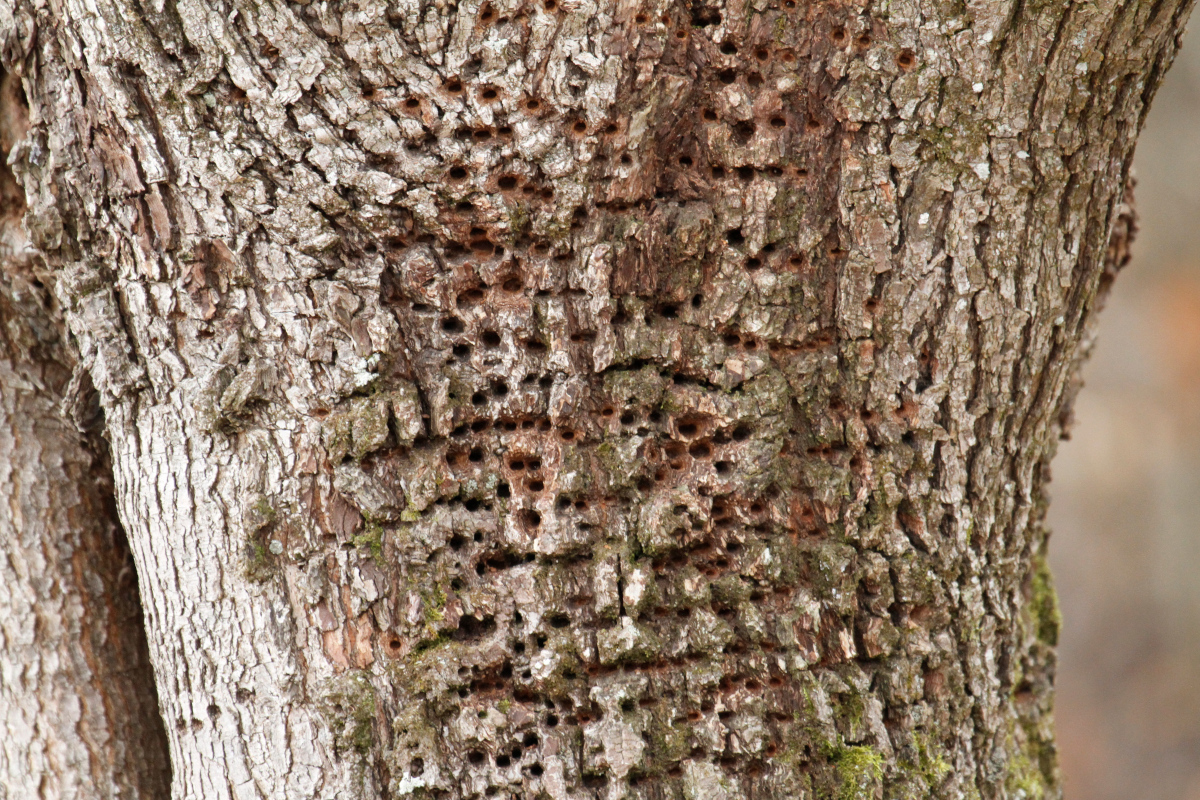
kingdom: Animalia
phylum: Chordata
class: Aves
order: Piciformes
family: Picidae
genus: Sphyrapicus
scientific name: Sphyrapicus varius
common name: Yellow-bellied sapsucker
